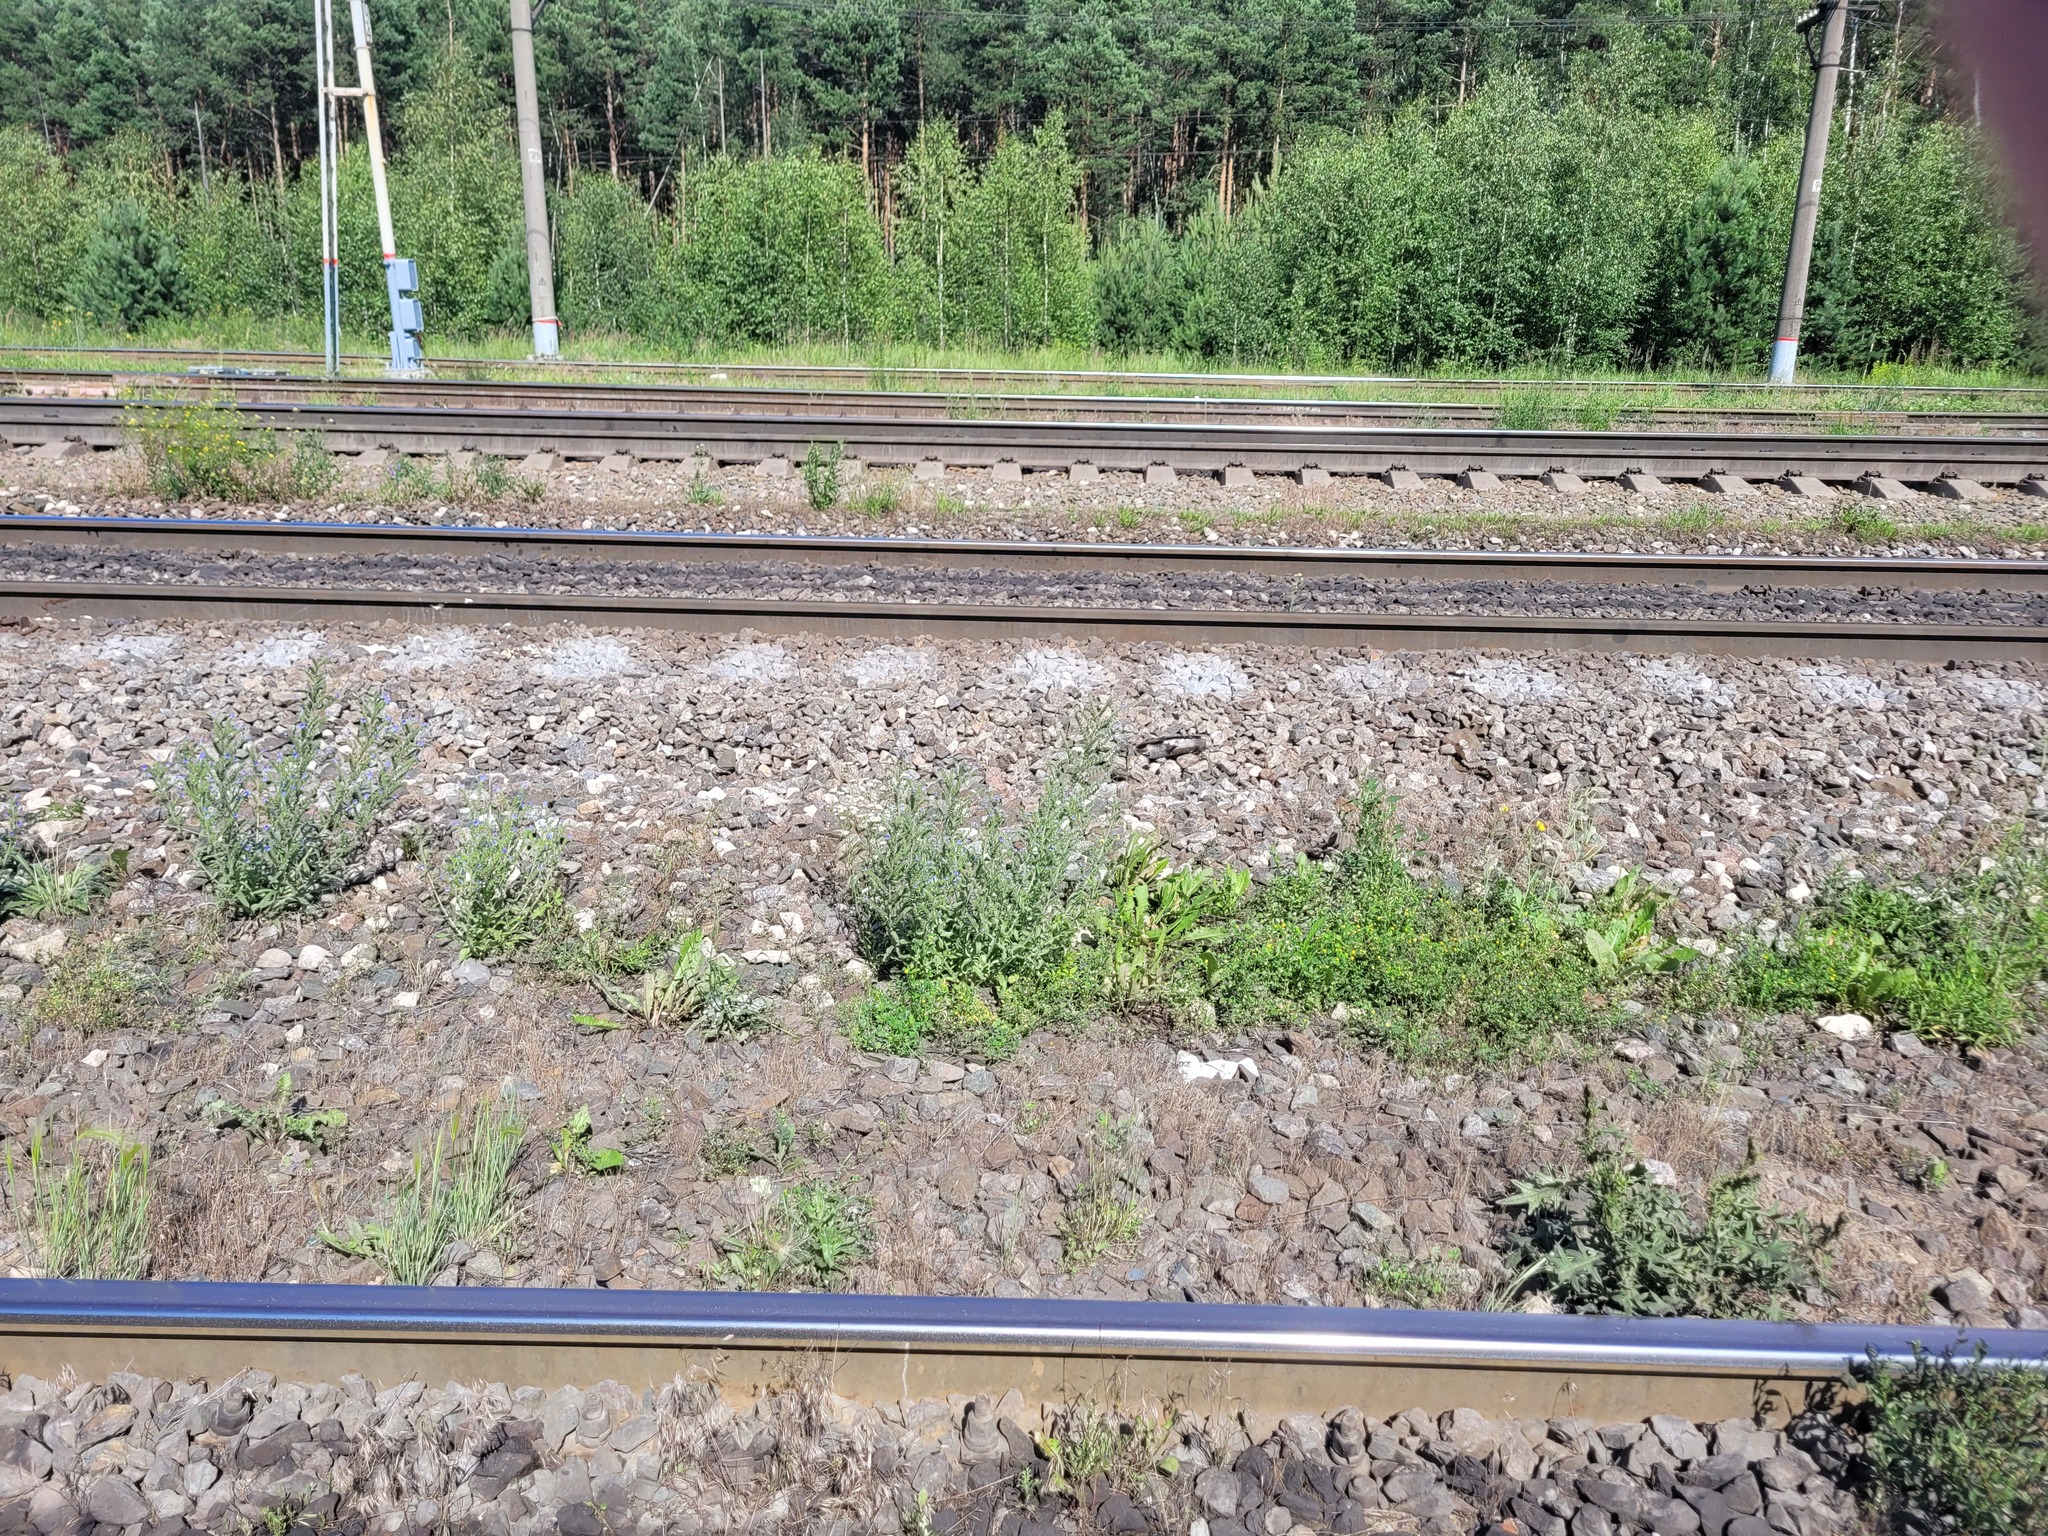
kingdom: Plantae
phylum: Tracheophyta
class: Magnoliopsida
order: Boraginales
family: Boraginaceae
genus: Echium
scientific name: Echium vulgare
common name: Common viper's bugloss
